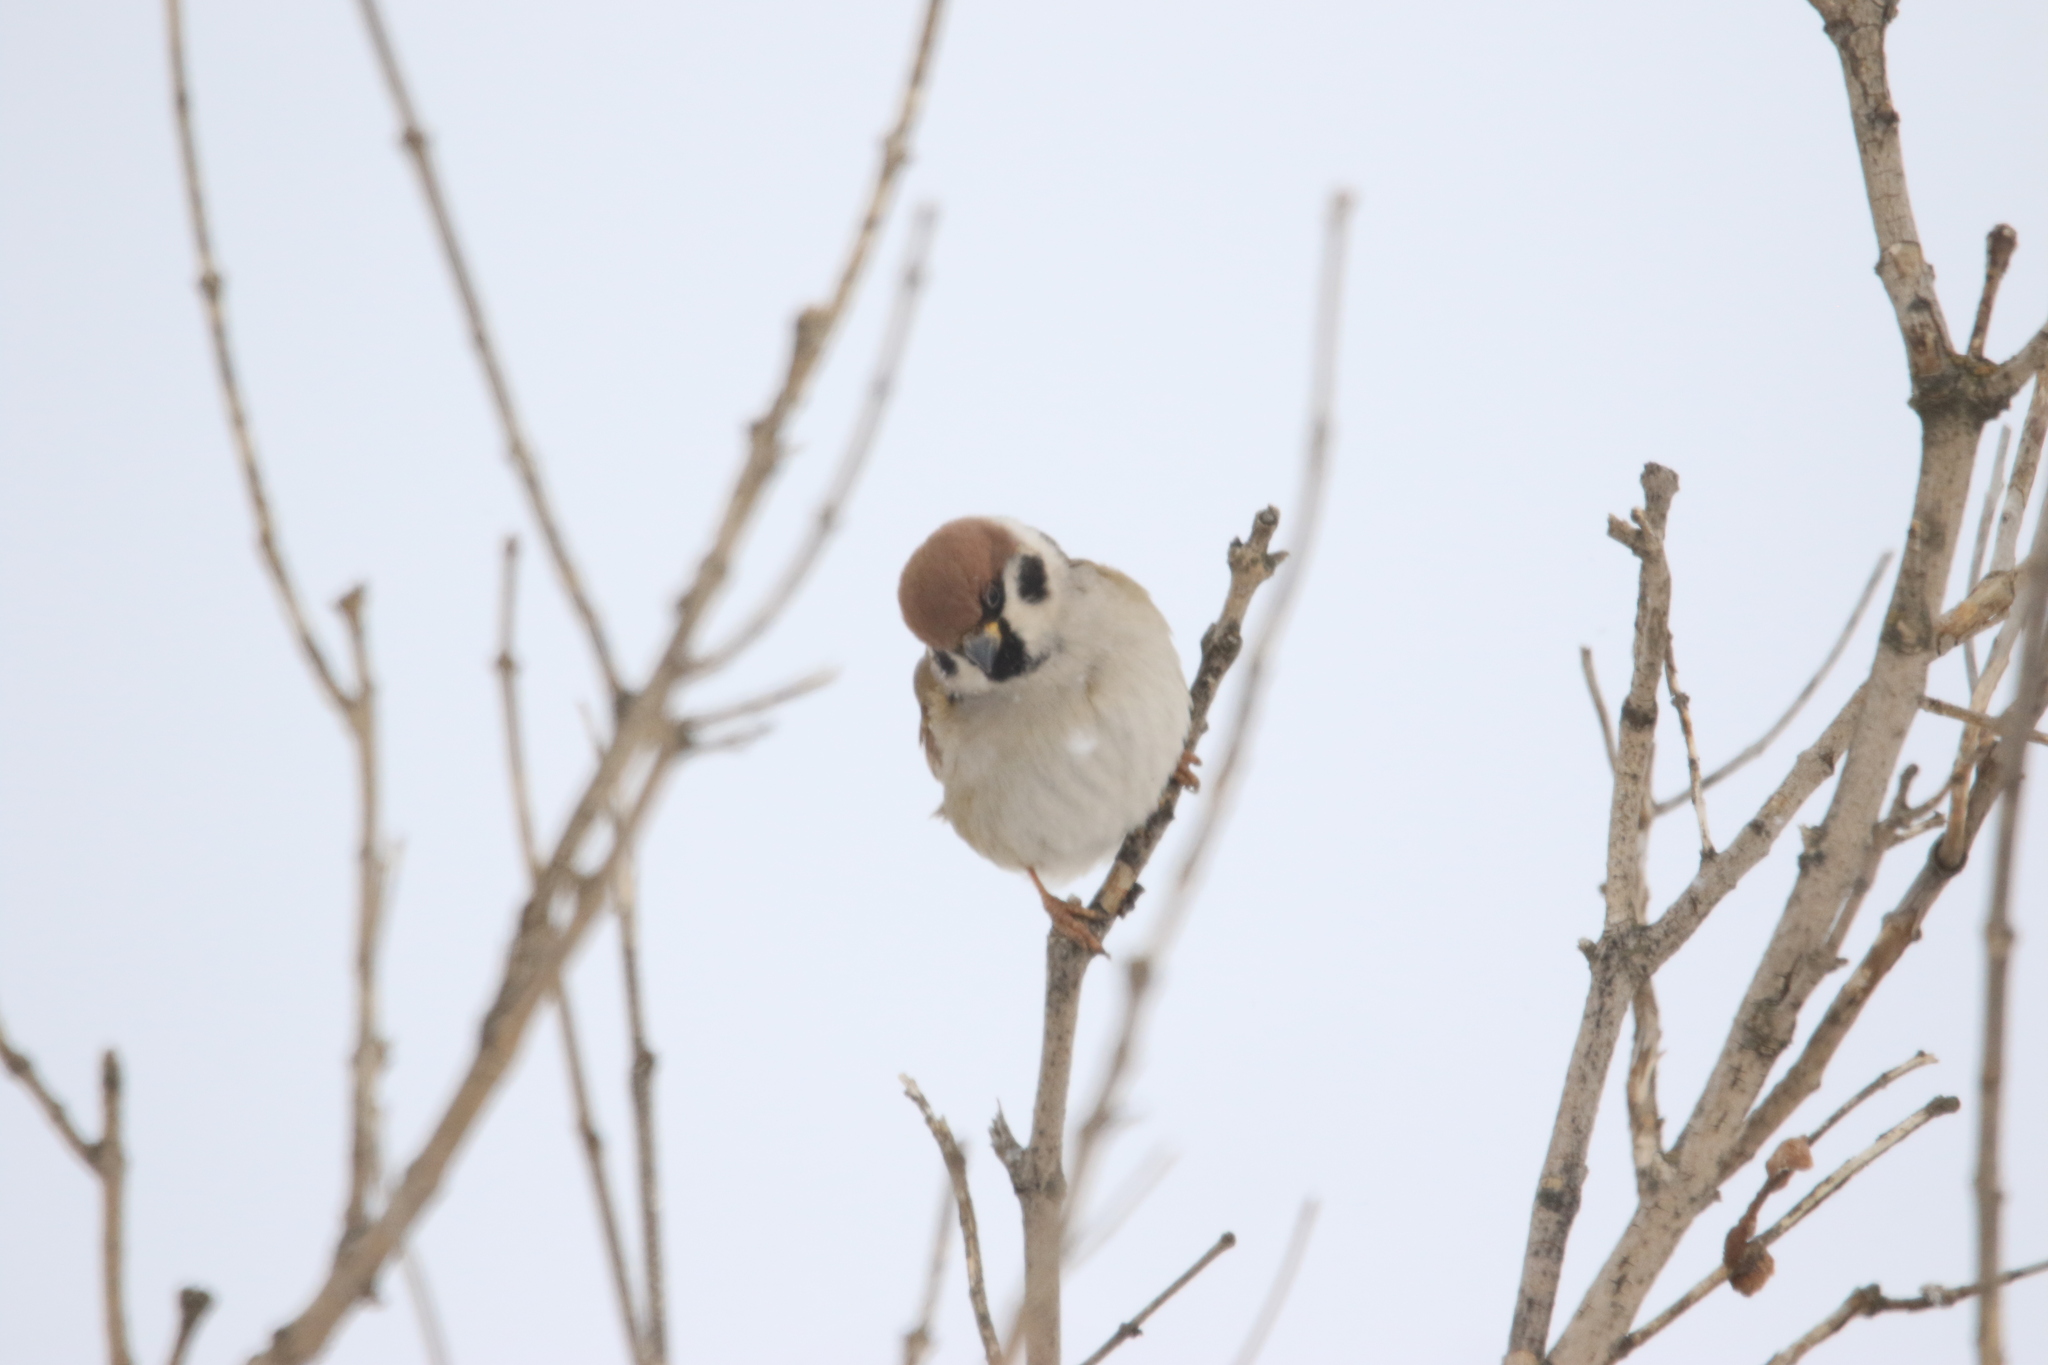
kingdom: Animalia
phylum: Chordata
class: Aves
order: Passeriformes
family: Passeridae
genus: Passer
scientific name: Passer montanus
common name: Eurasian tree sparrow
